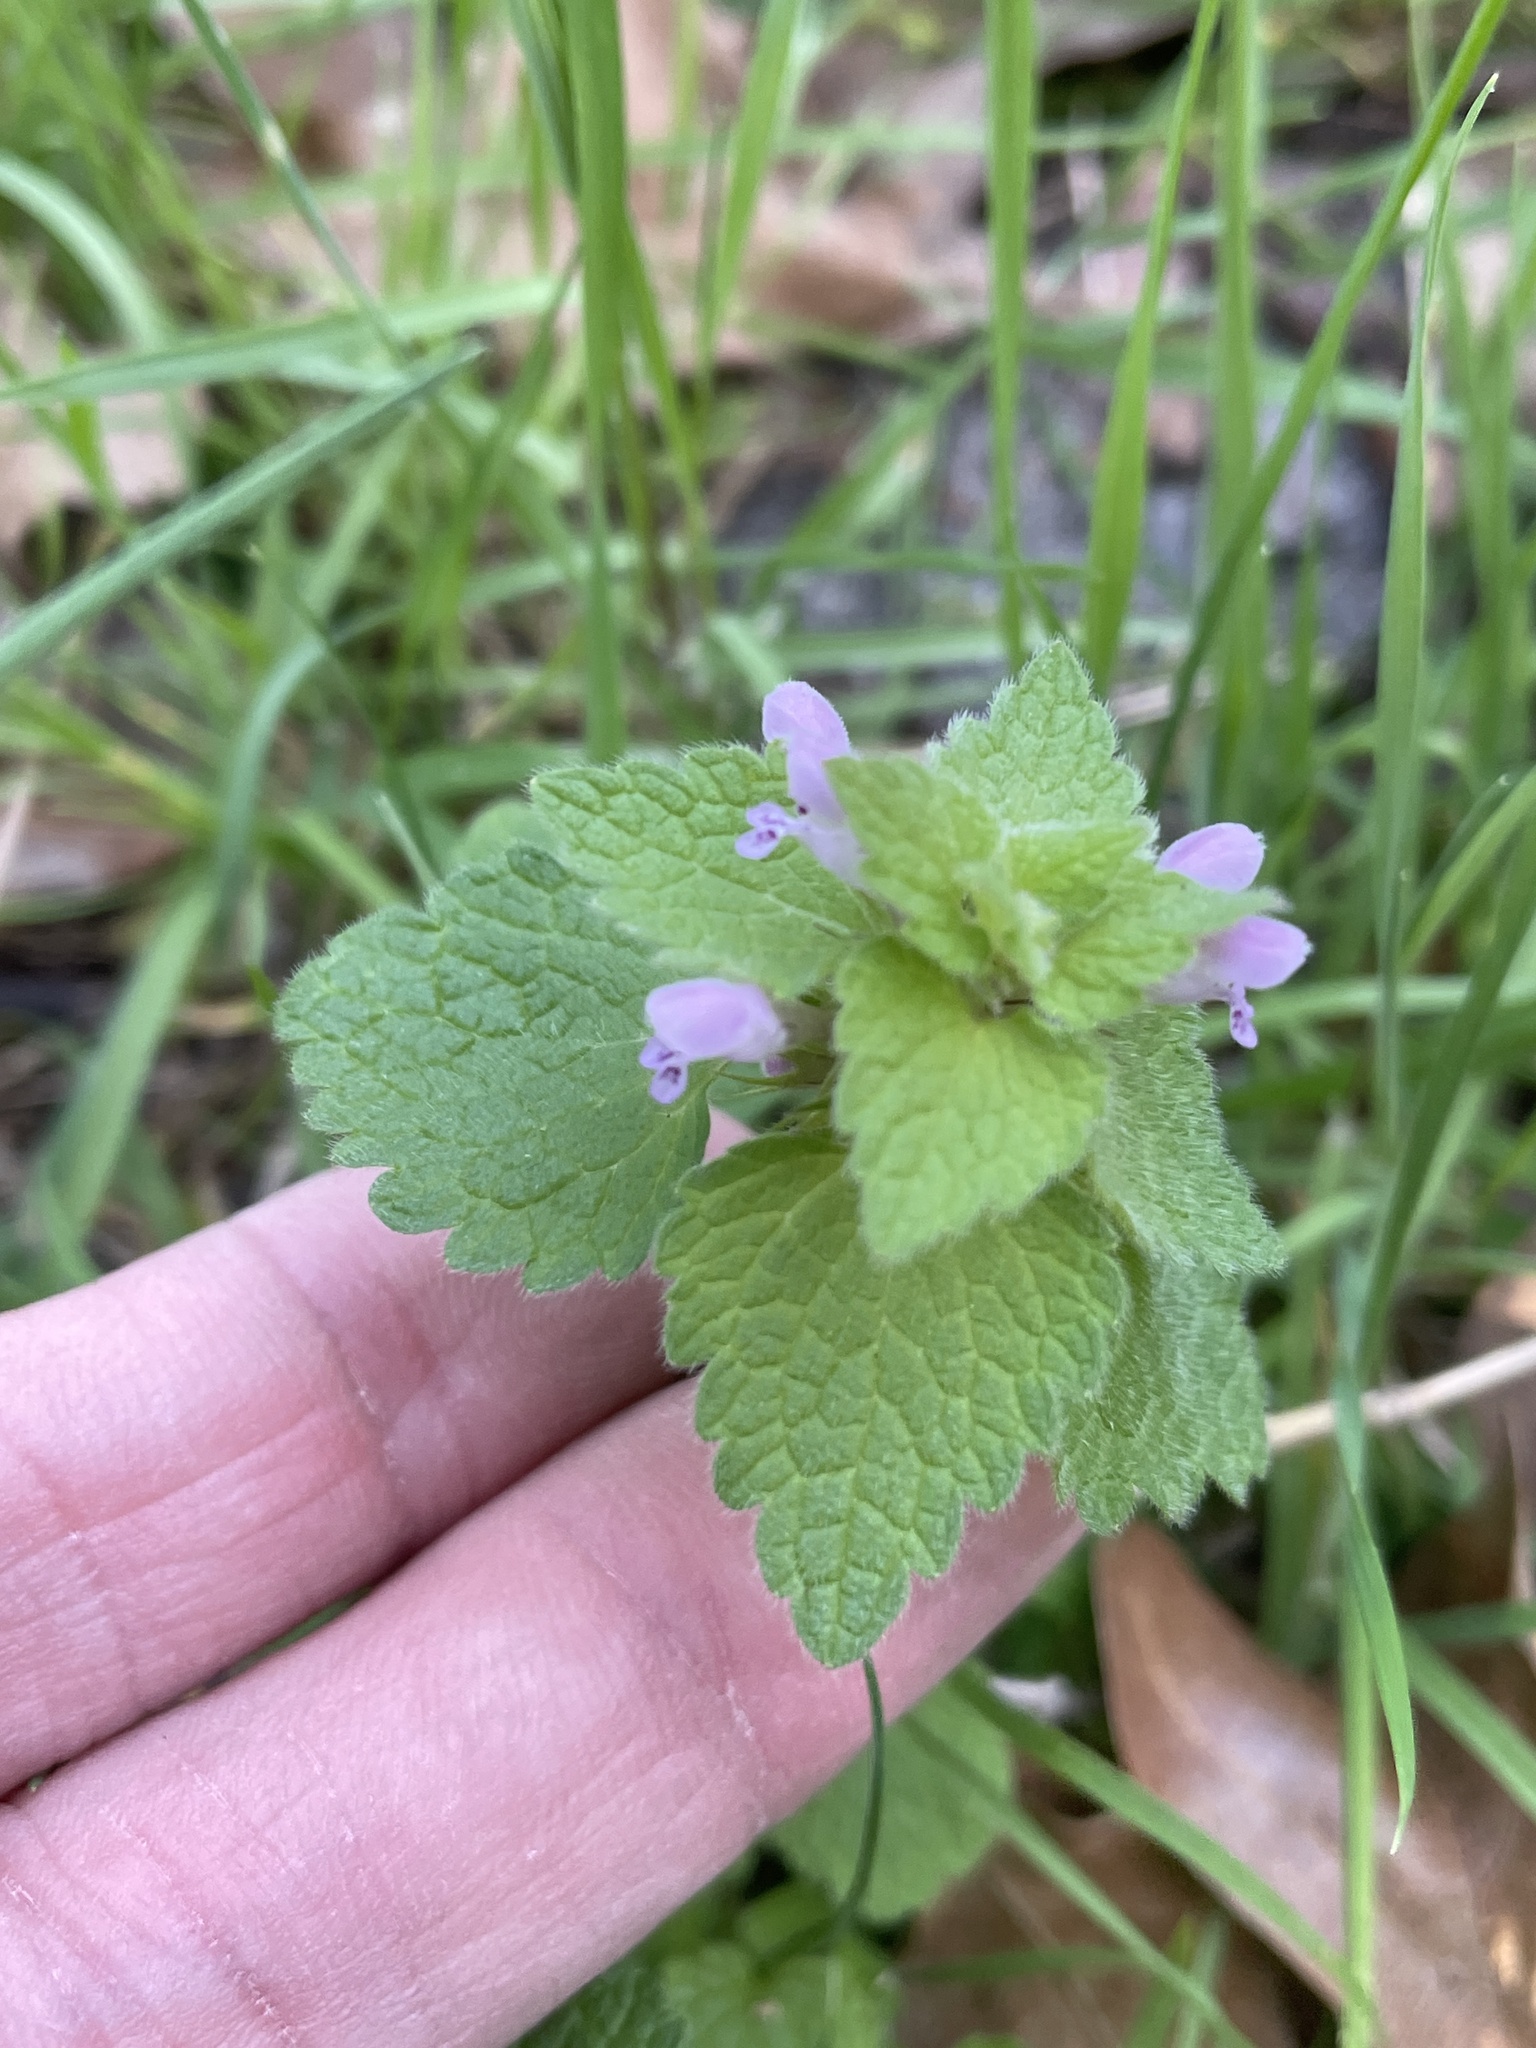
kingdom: Plantae
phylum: Tracheophyta
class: Magnoliopsida
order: Lamiales
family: Lamiaceae
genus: Lamium
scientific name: Lamium purpureum
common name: Red dead-nettle
